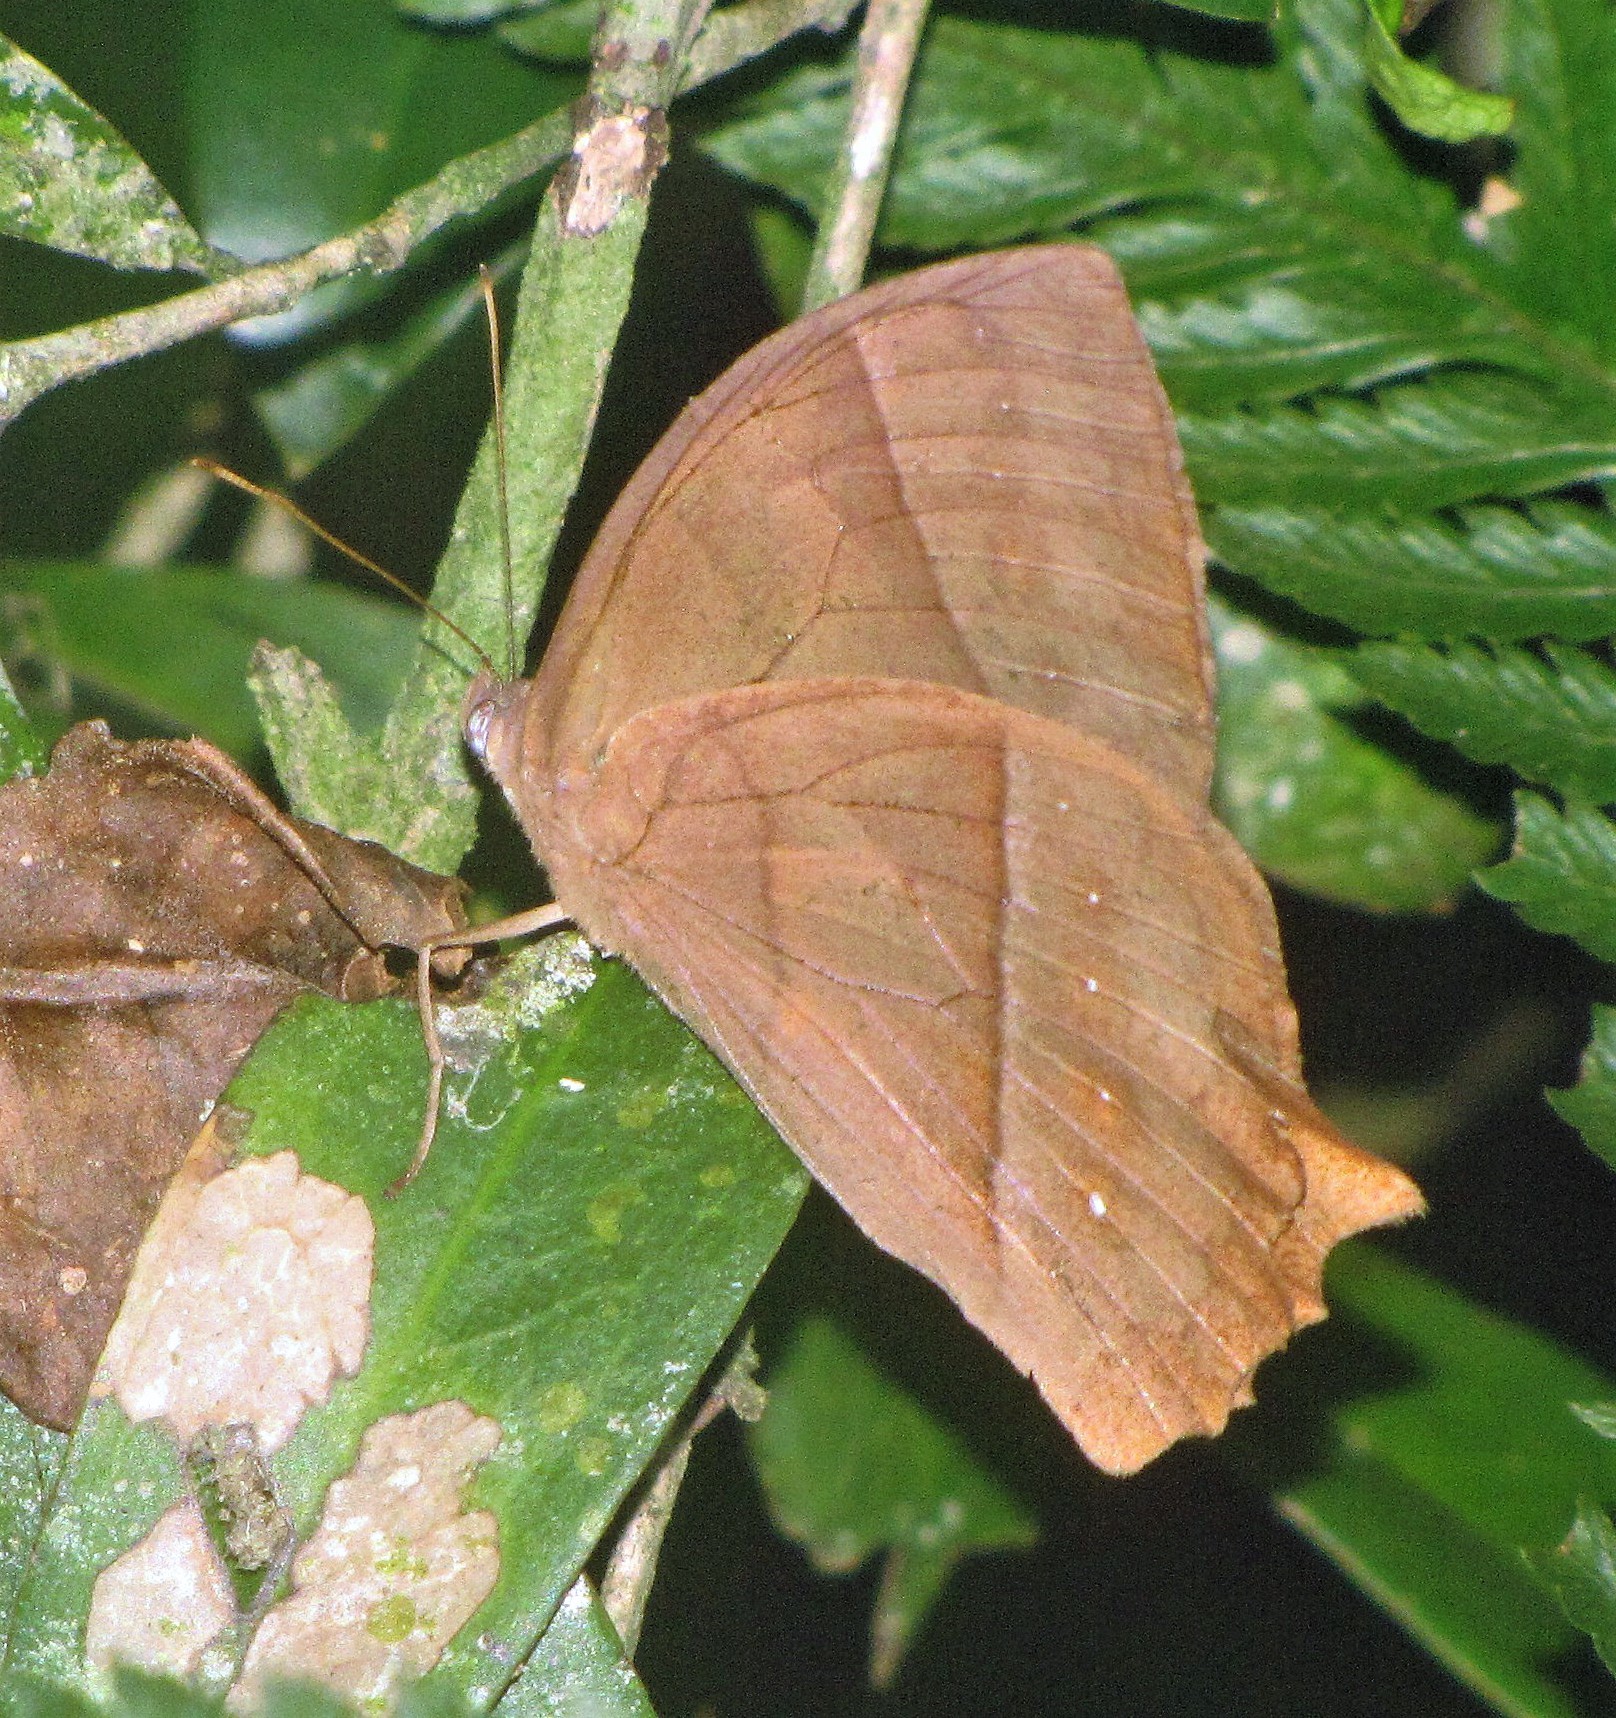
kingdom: Animalia
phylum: Arthropoda
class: Insecta
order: Lepidoptera
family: Nymphalidae
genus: Taygetis
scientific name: Taygetis virgilia
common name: Stub-tailed satyr
